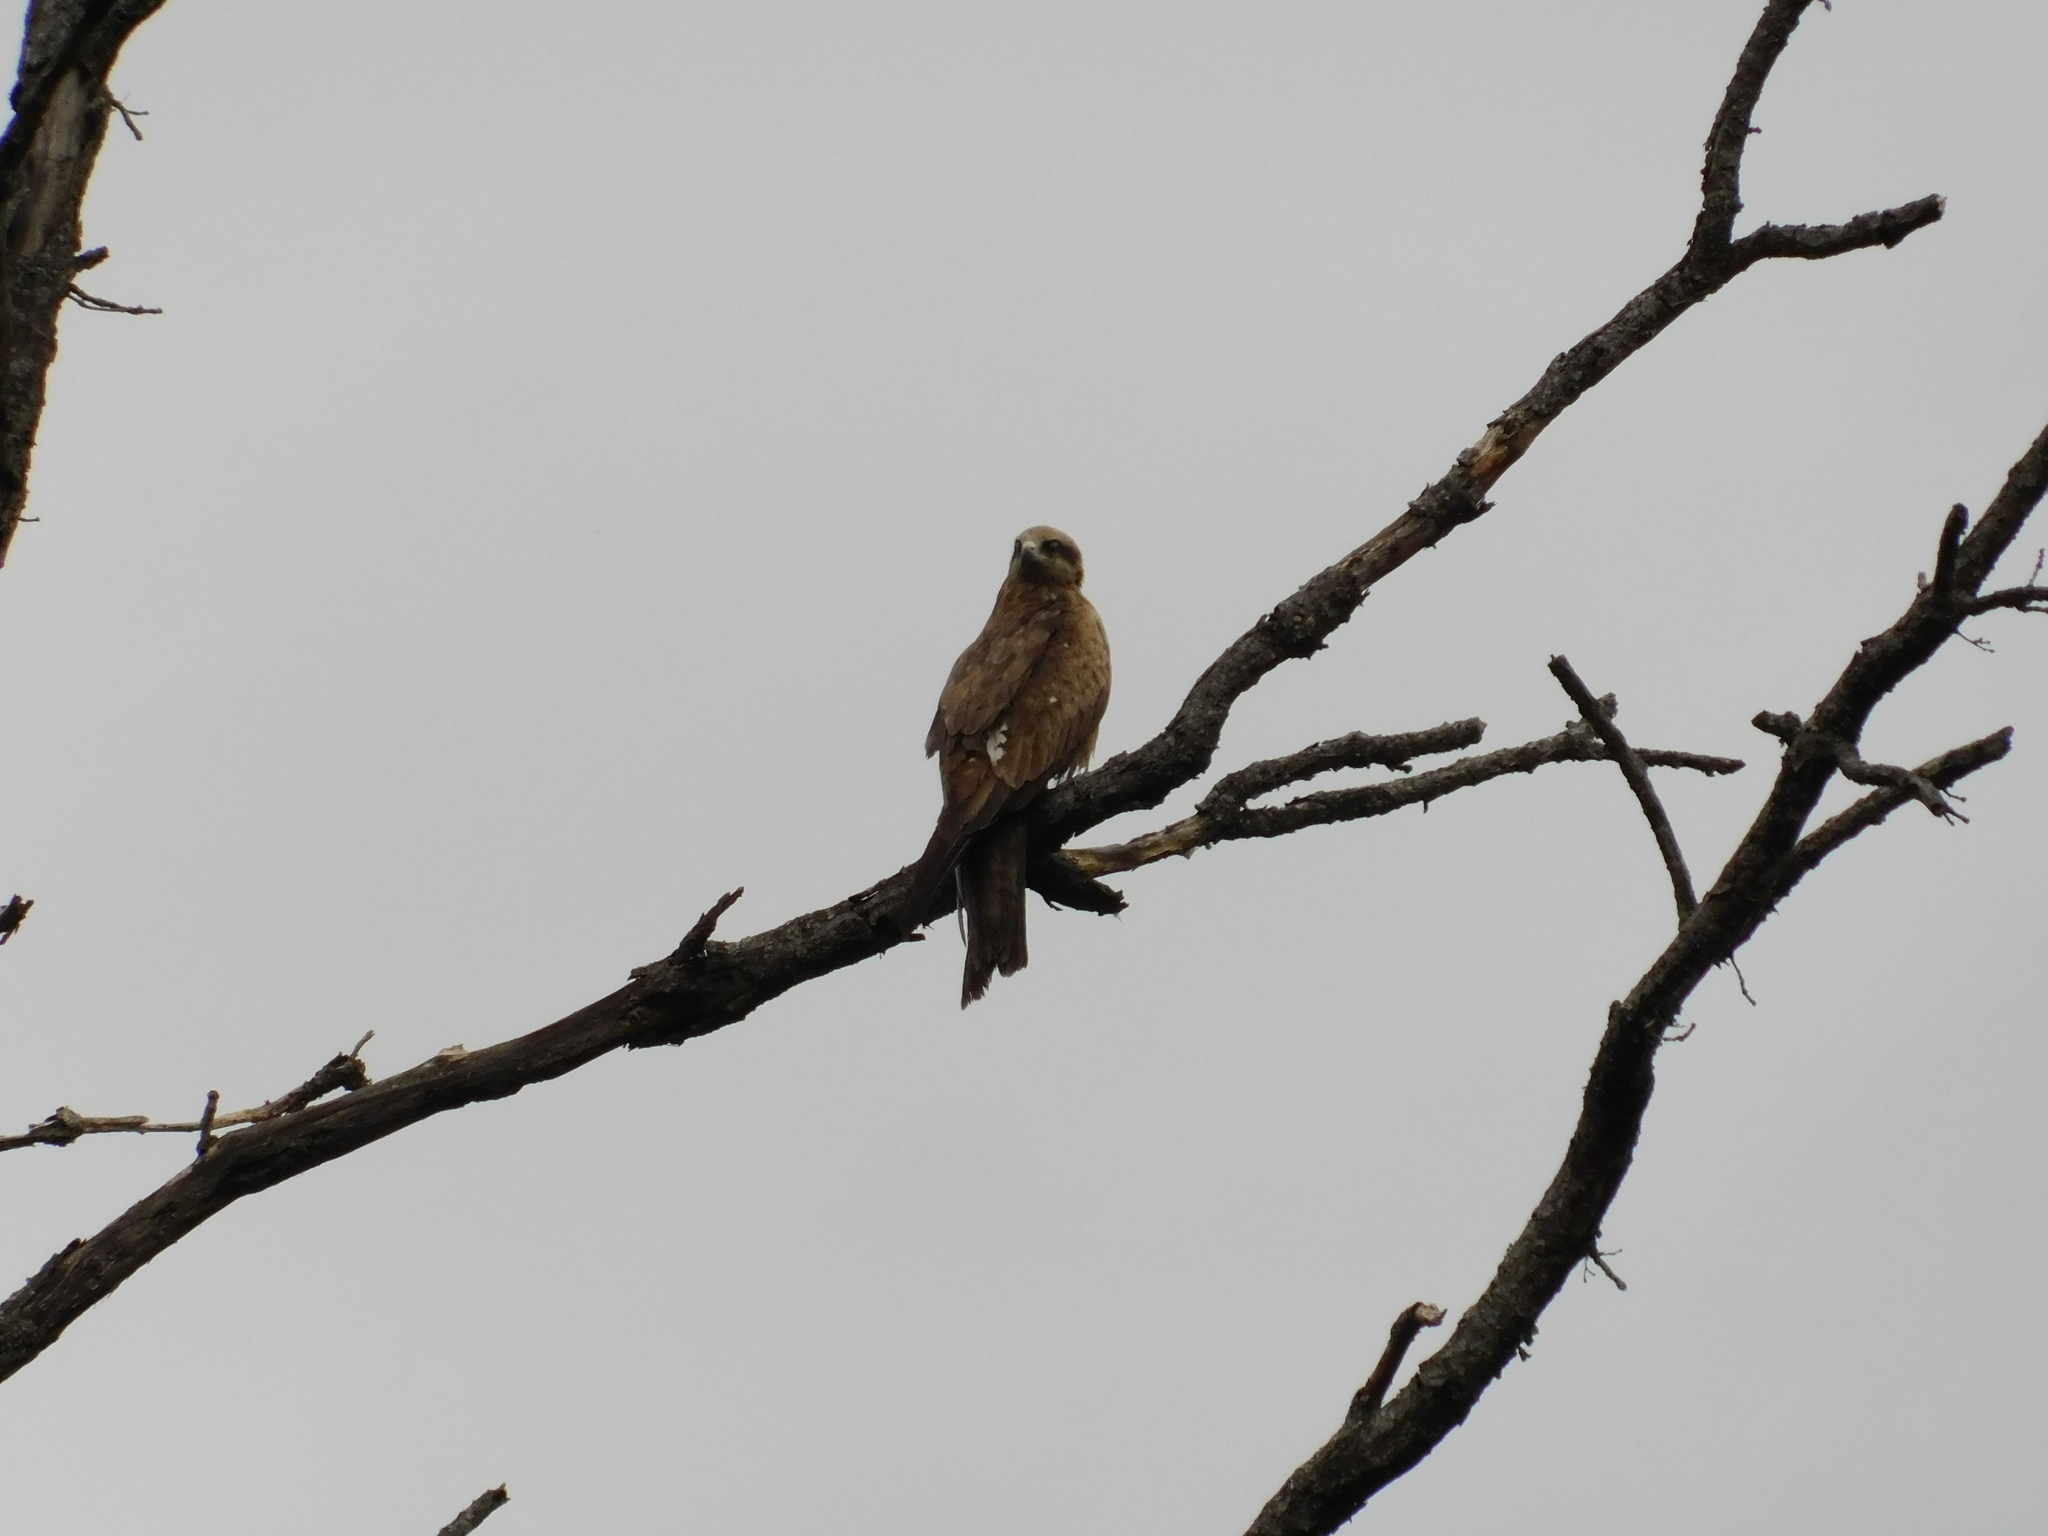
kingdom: Animalia
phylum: Chordata
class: Aves
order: Accipitriformes
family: Accipitridae
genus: Milvus
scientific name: Milvus migrans
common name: Black kite
